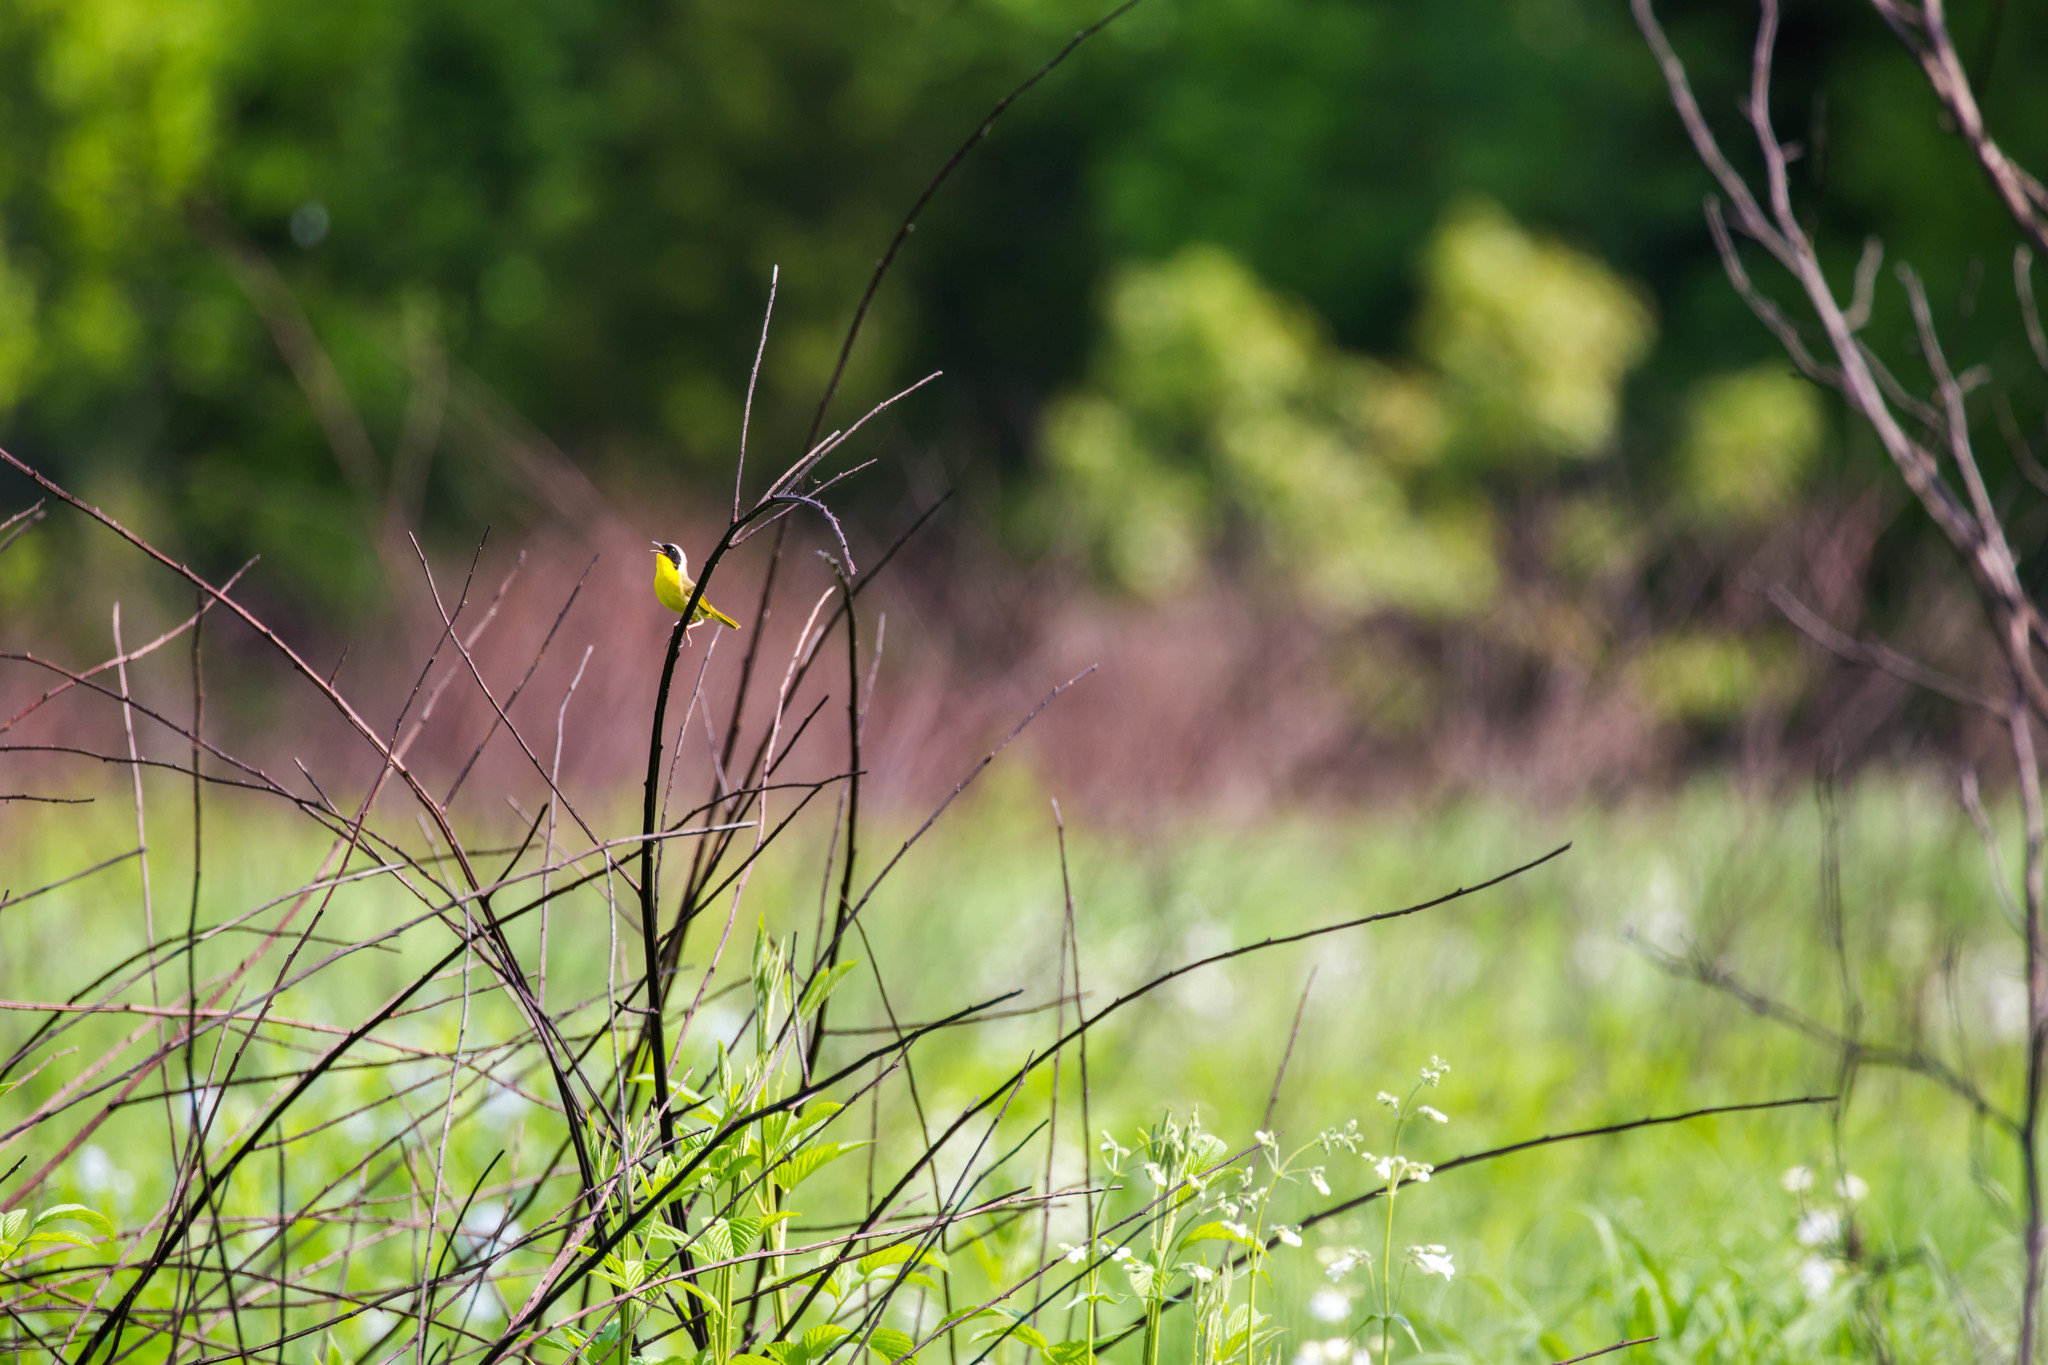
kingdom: Animalia
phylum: Chordata
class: Aves
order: Passeriformes
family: Parulidae
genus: Geothlypis
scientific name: Geothlypis trichas
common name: Common yellowthroat
